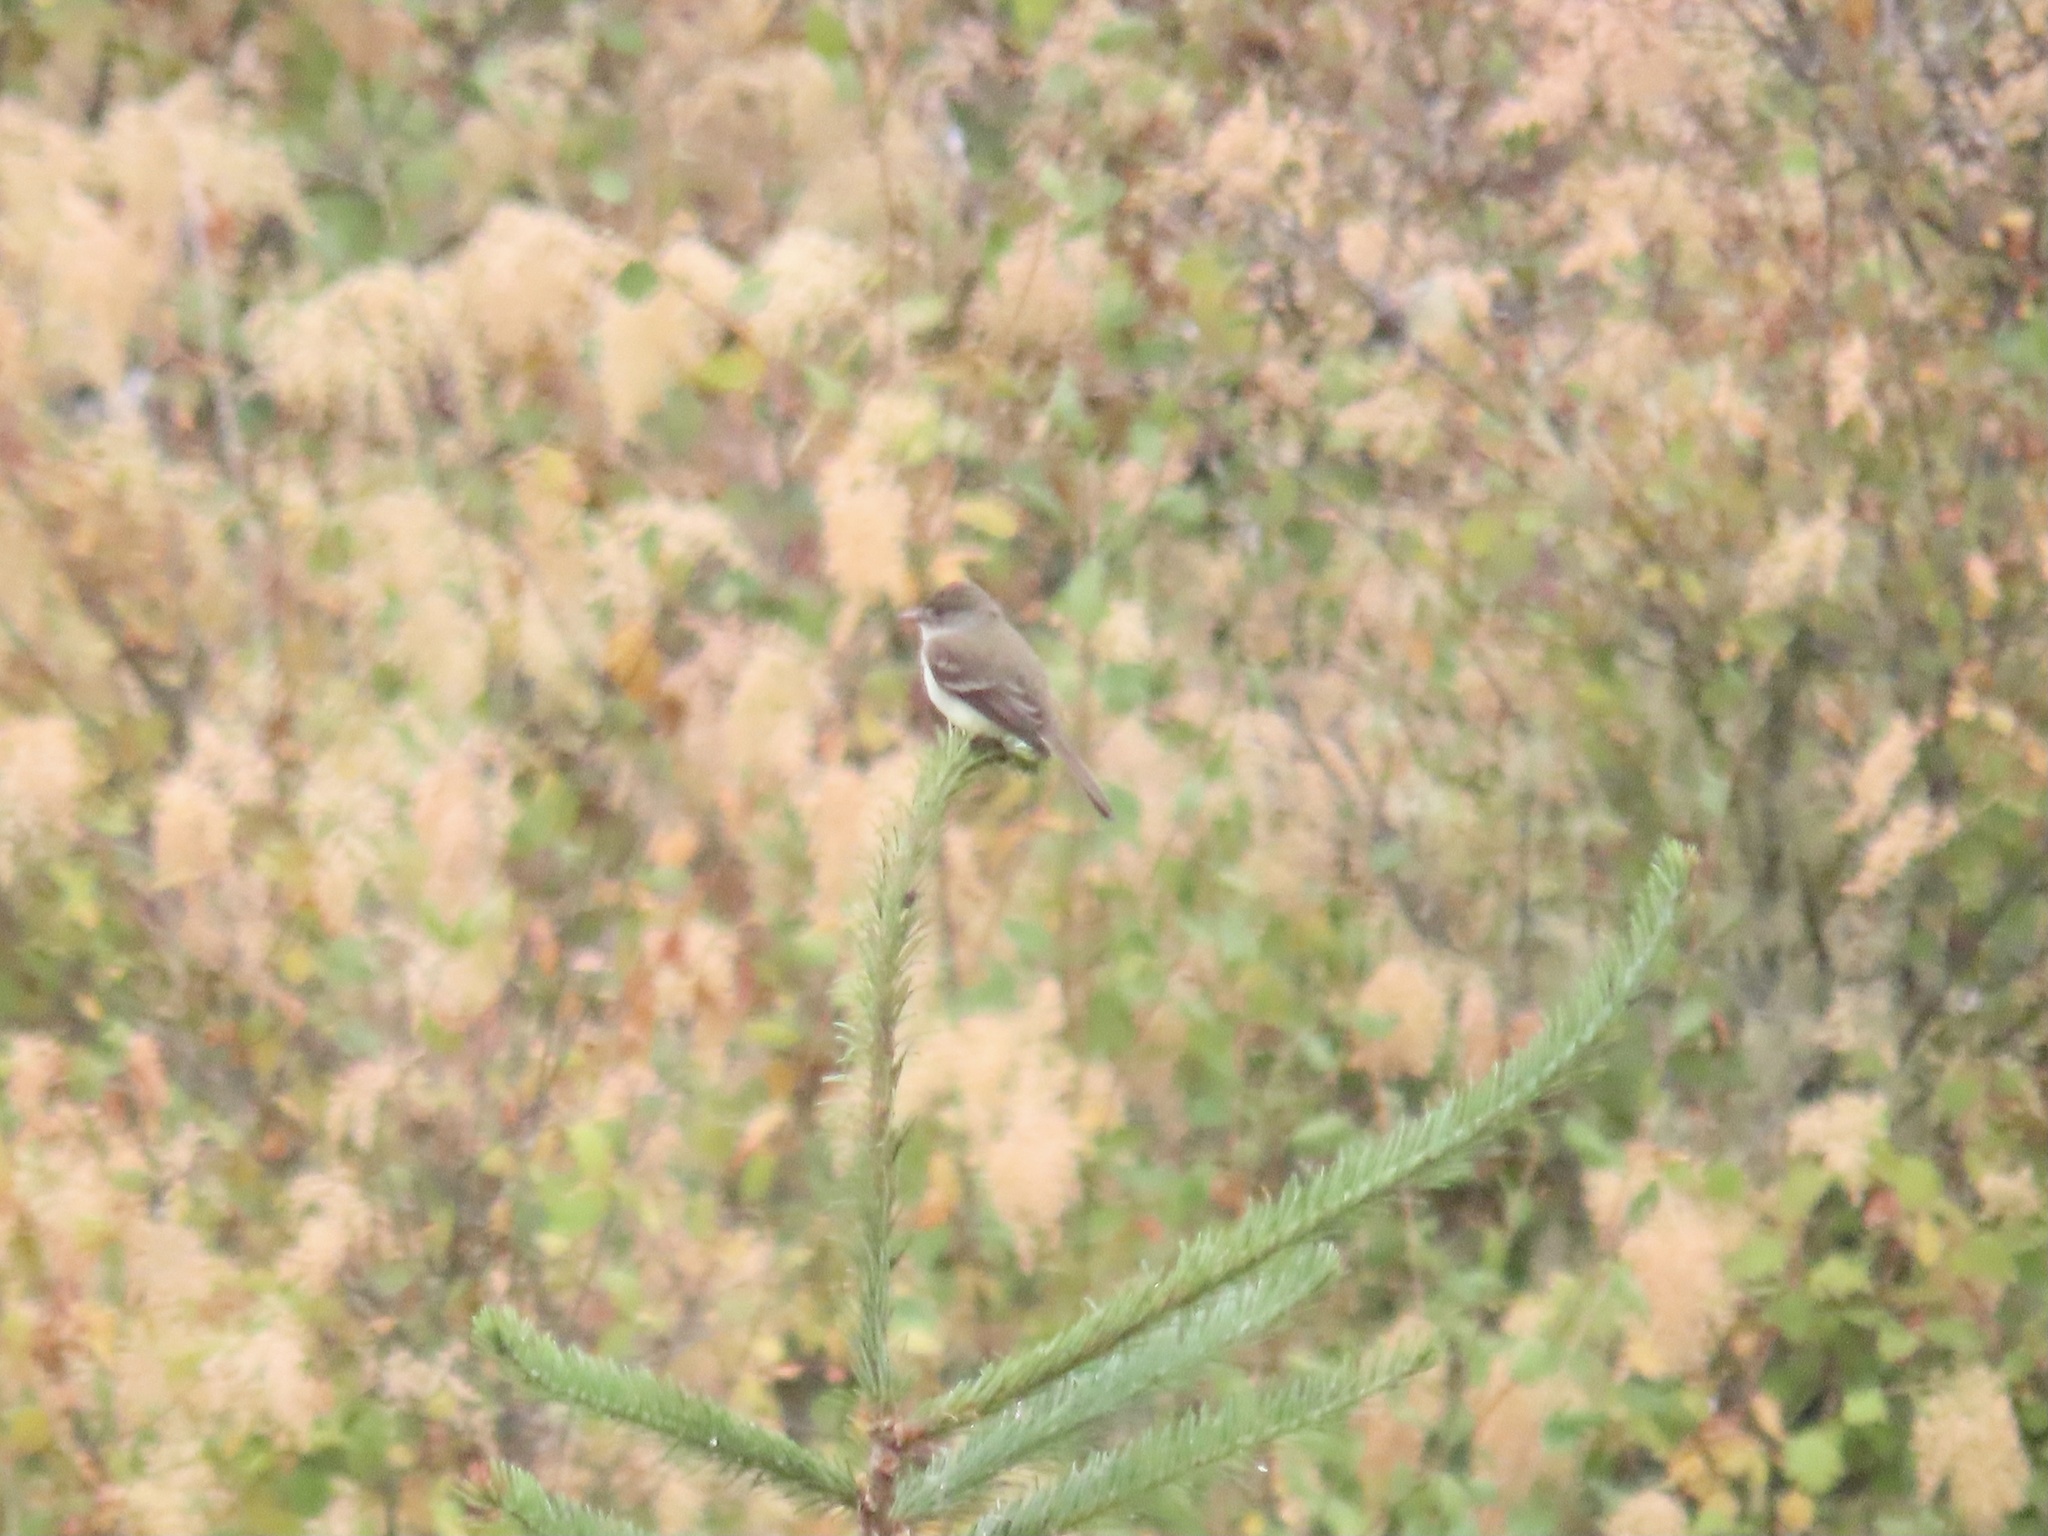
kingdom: Animalia
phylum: Chordata
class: Aves
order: Passeriformes
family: Tyrannidae
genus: Empidonax
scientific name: Empidonax traillii
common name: Willow flycatcher
